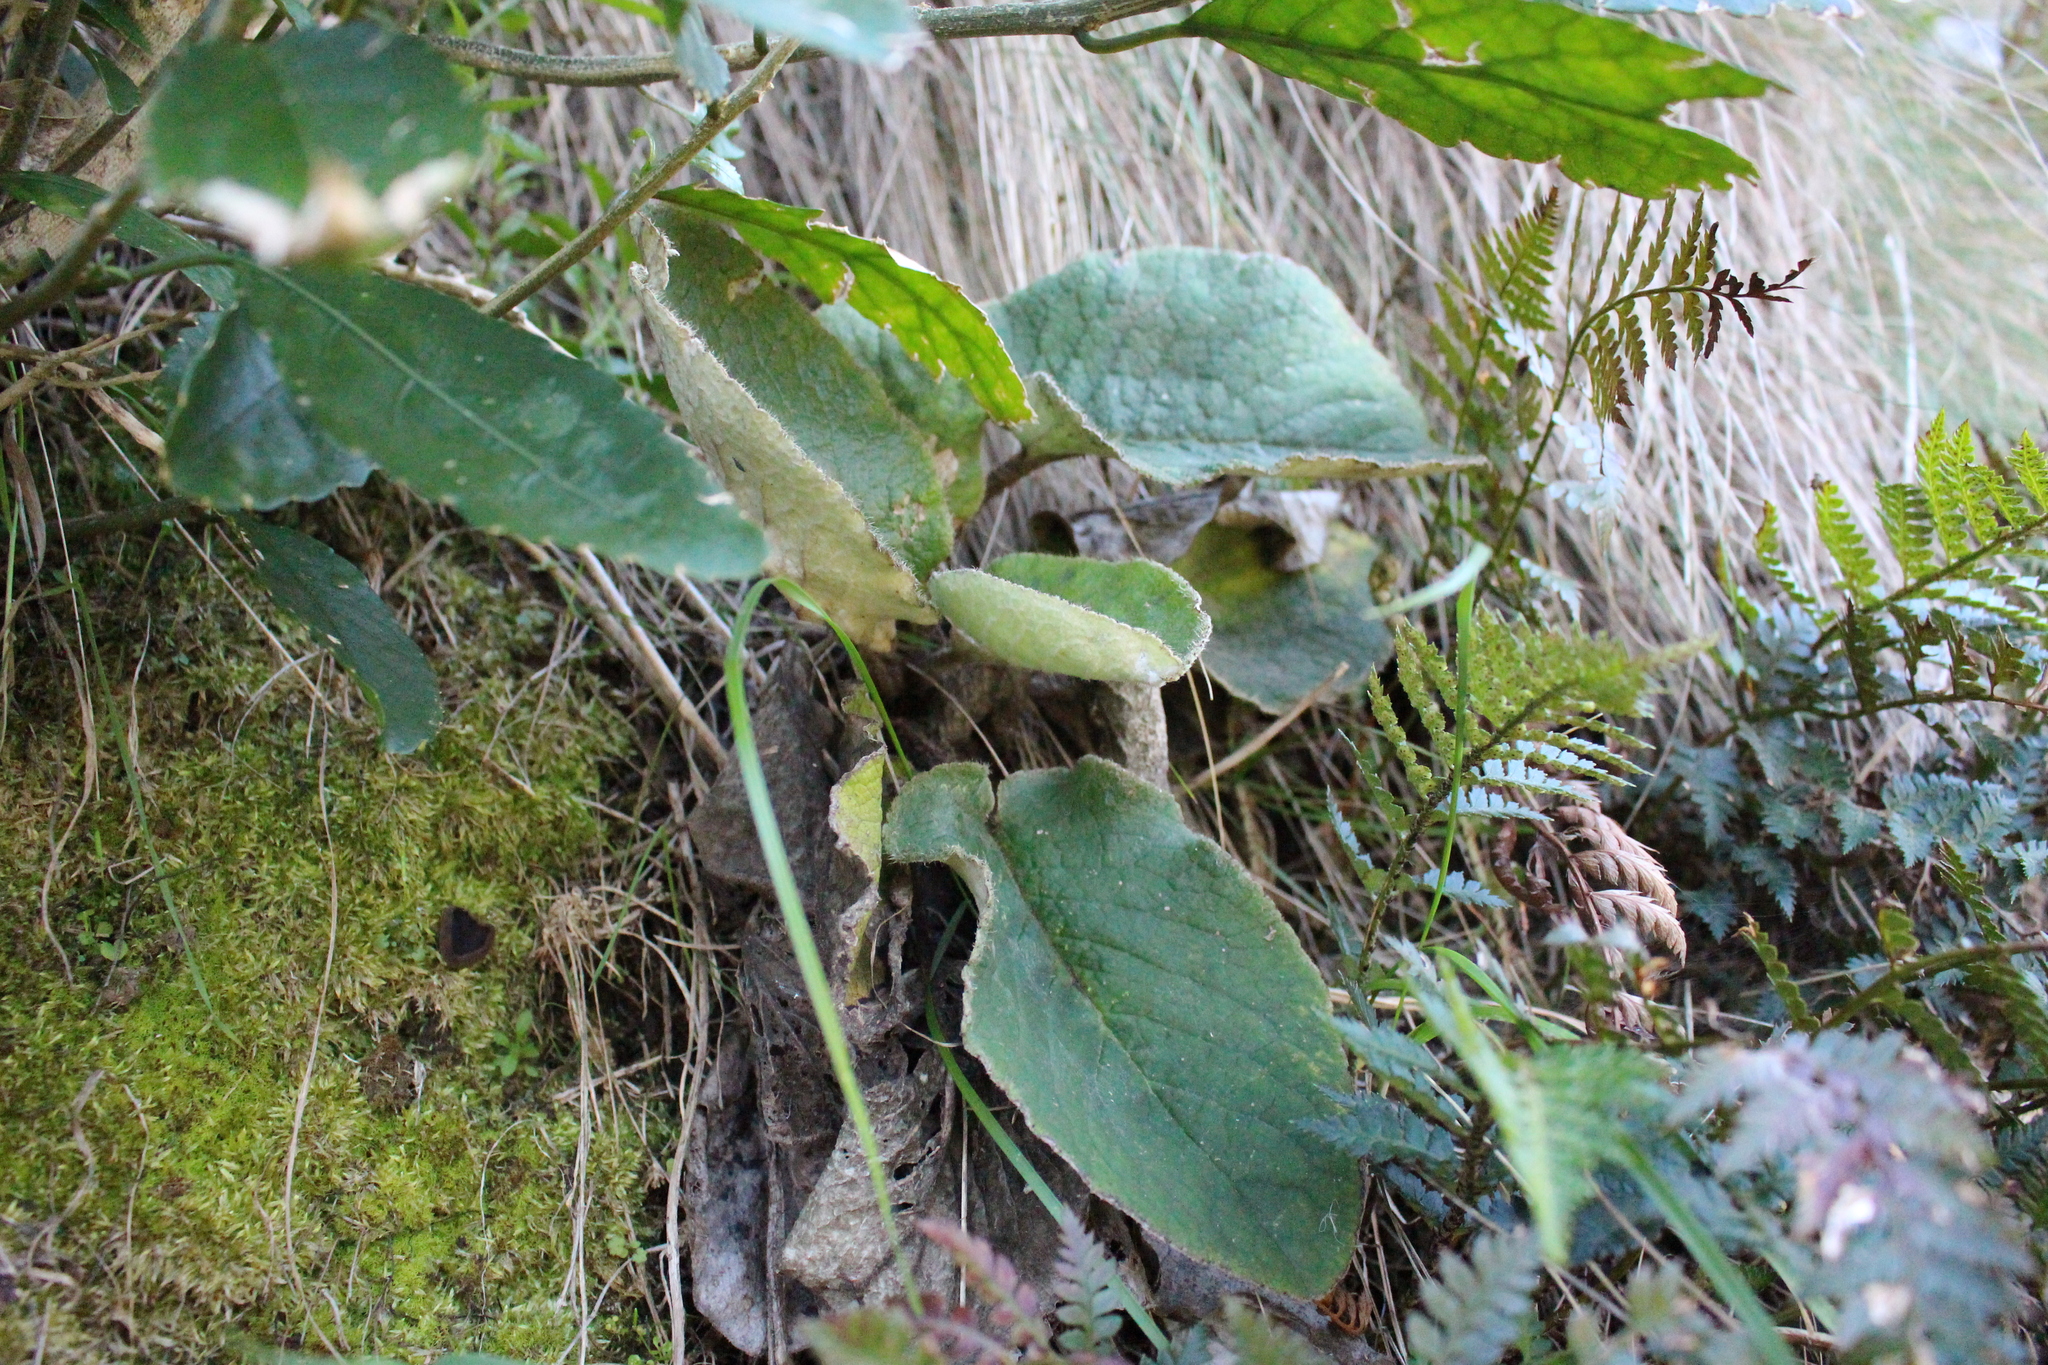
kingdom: Plantae
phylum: Tracheophyta
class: Magnoliopsida
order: Asterales
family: Asteraceae
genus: Brachyglottis
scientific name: Brachyglottis lagopus
